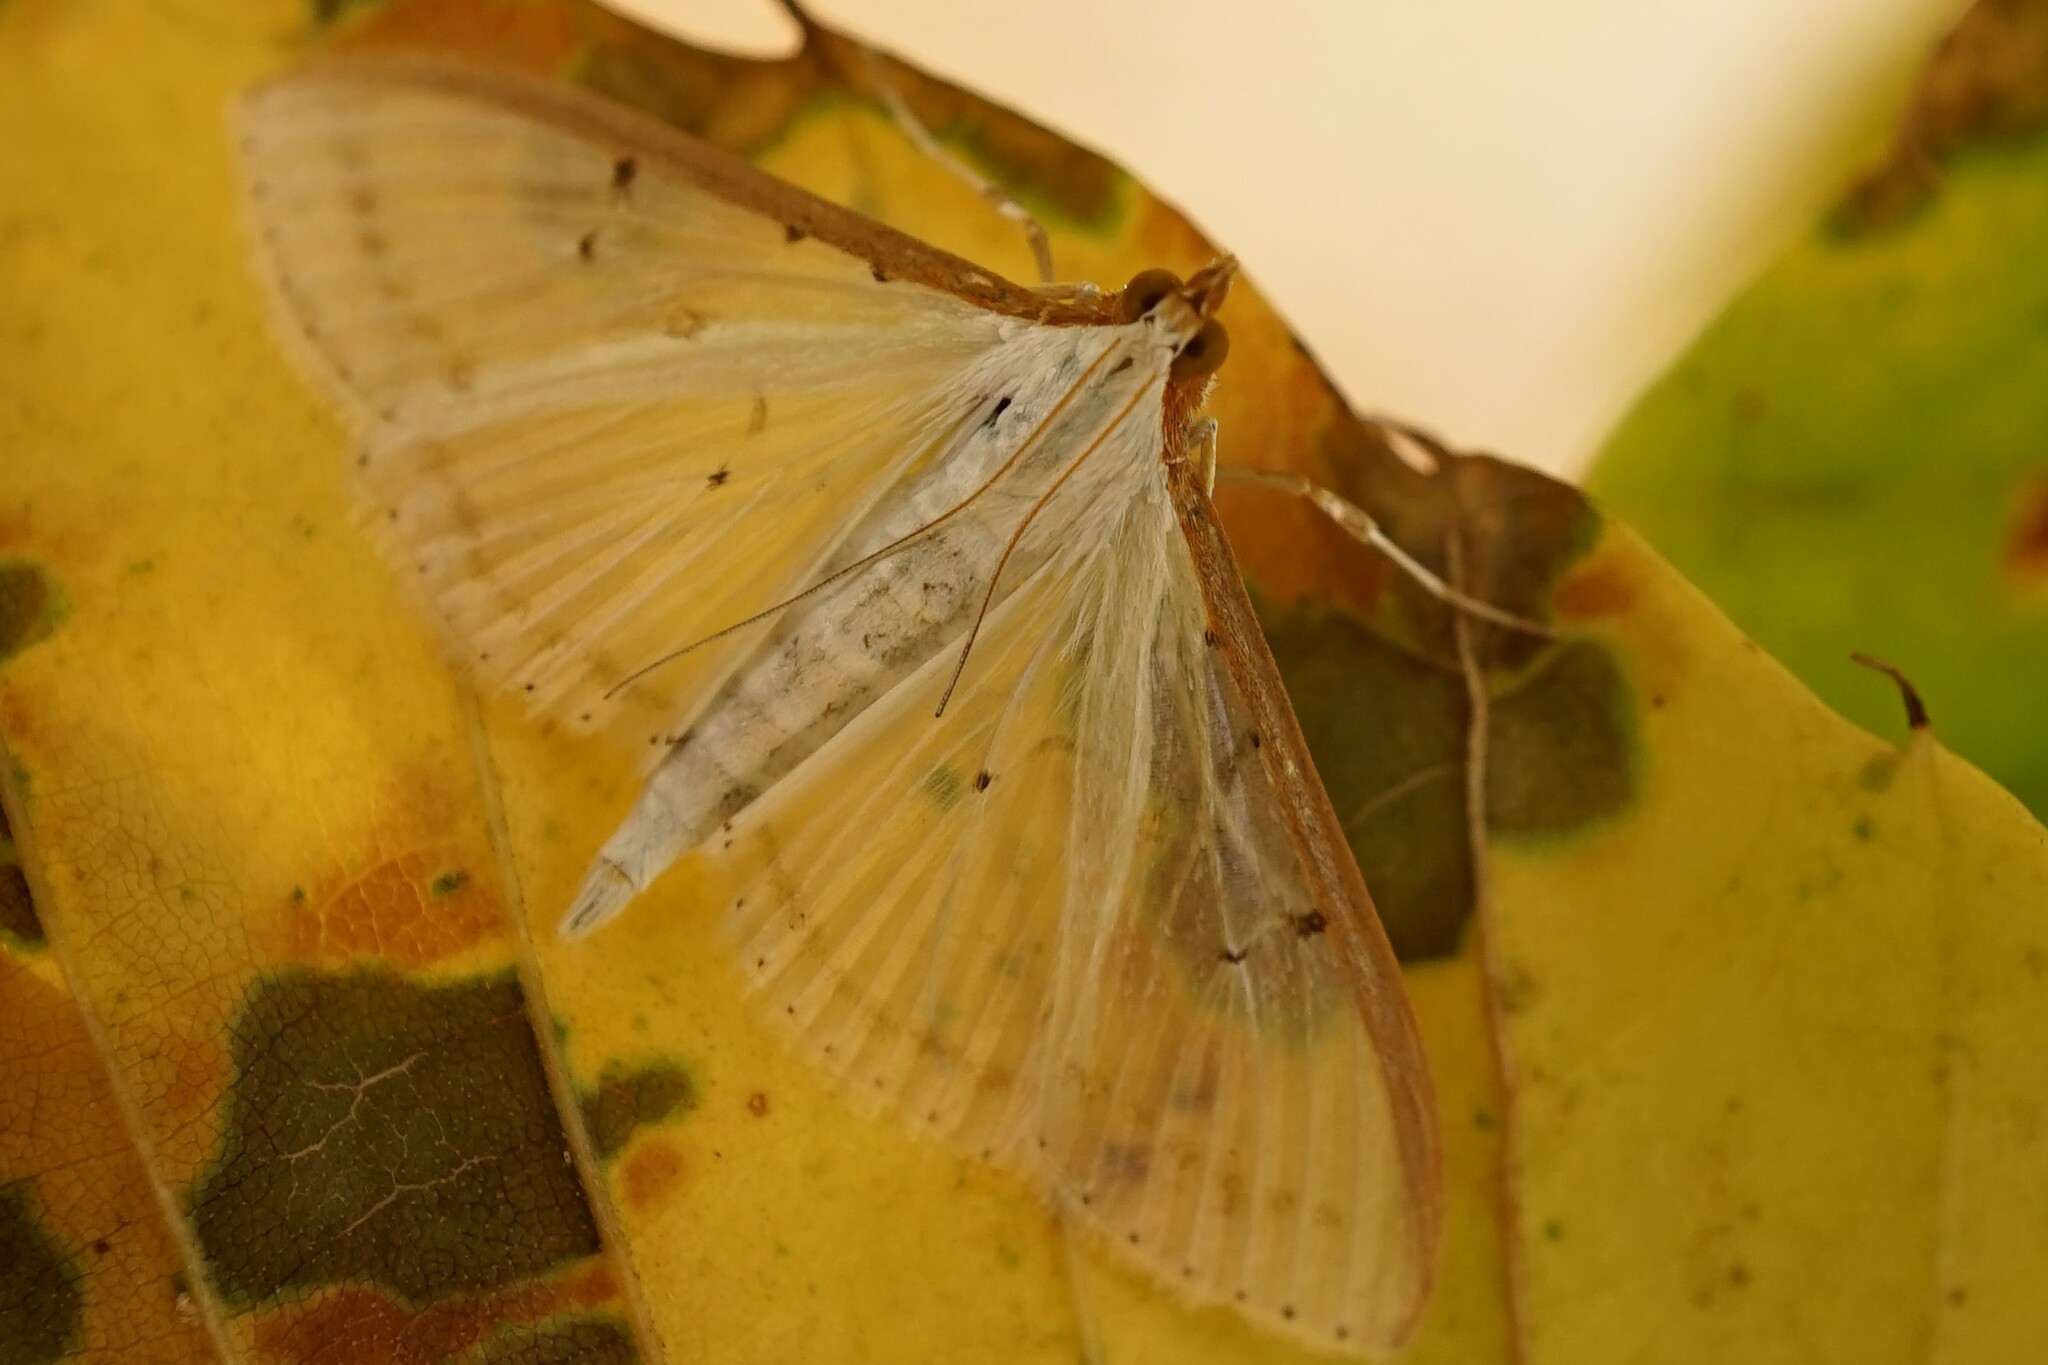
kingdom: Animalia
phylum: Arthropoda
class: Insecta
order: Lepidoptera
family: Crambidae
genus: Palpita
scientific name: Palpita nigropunctalis
